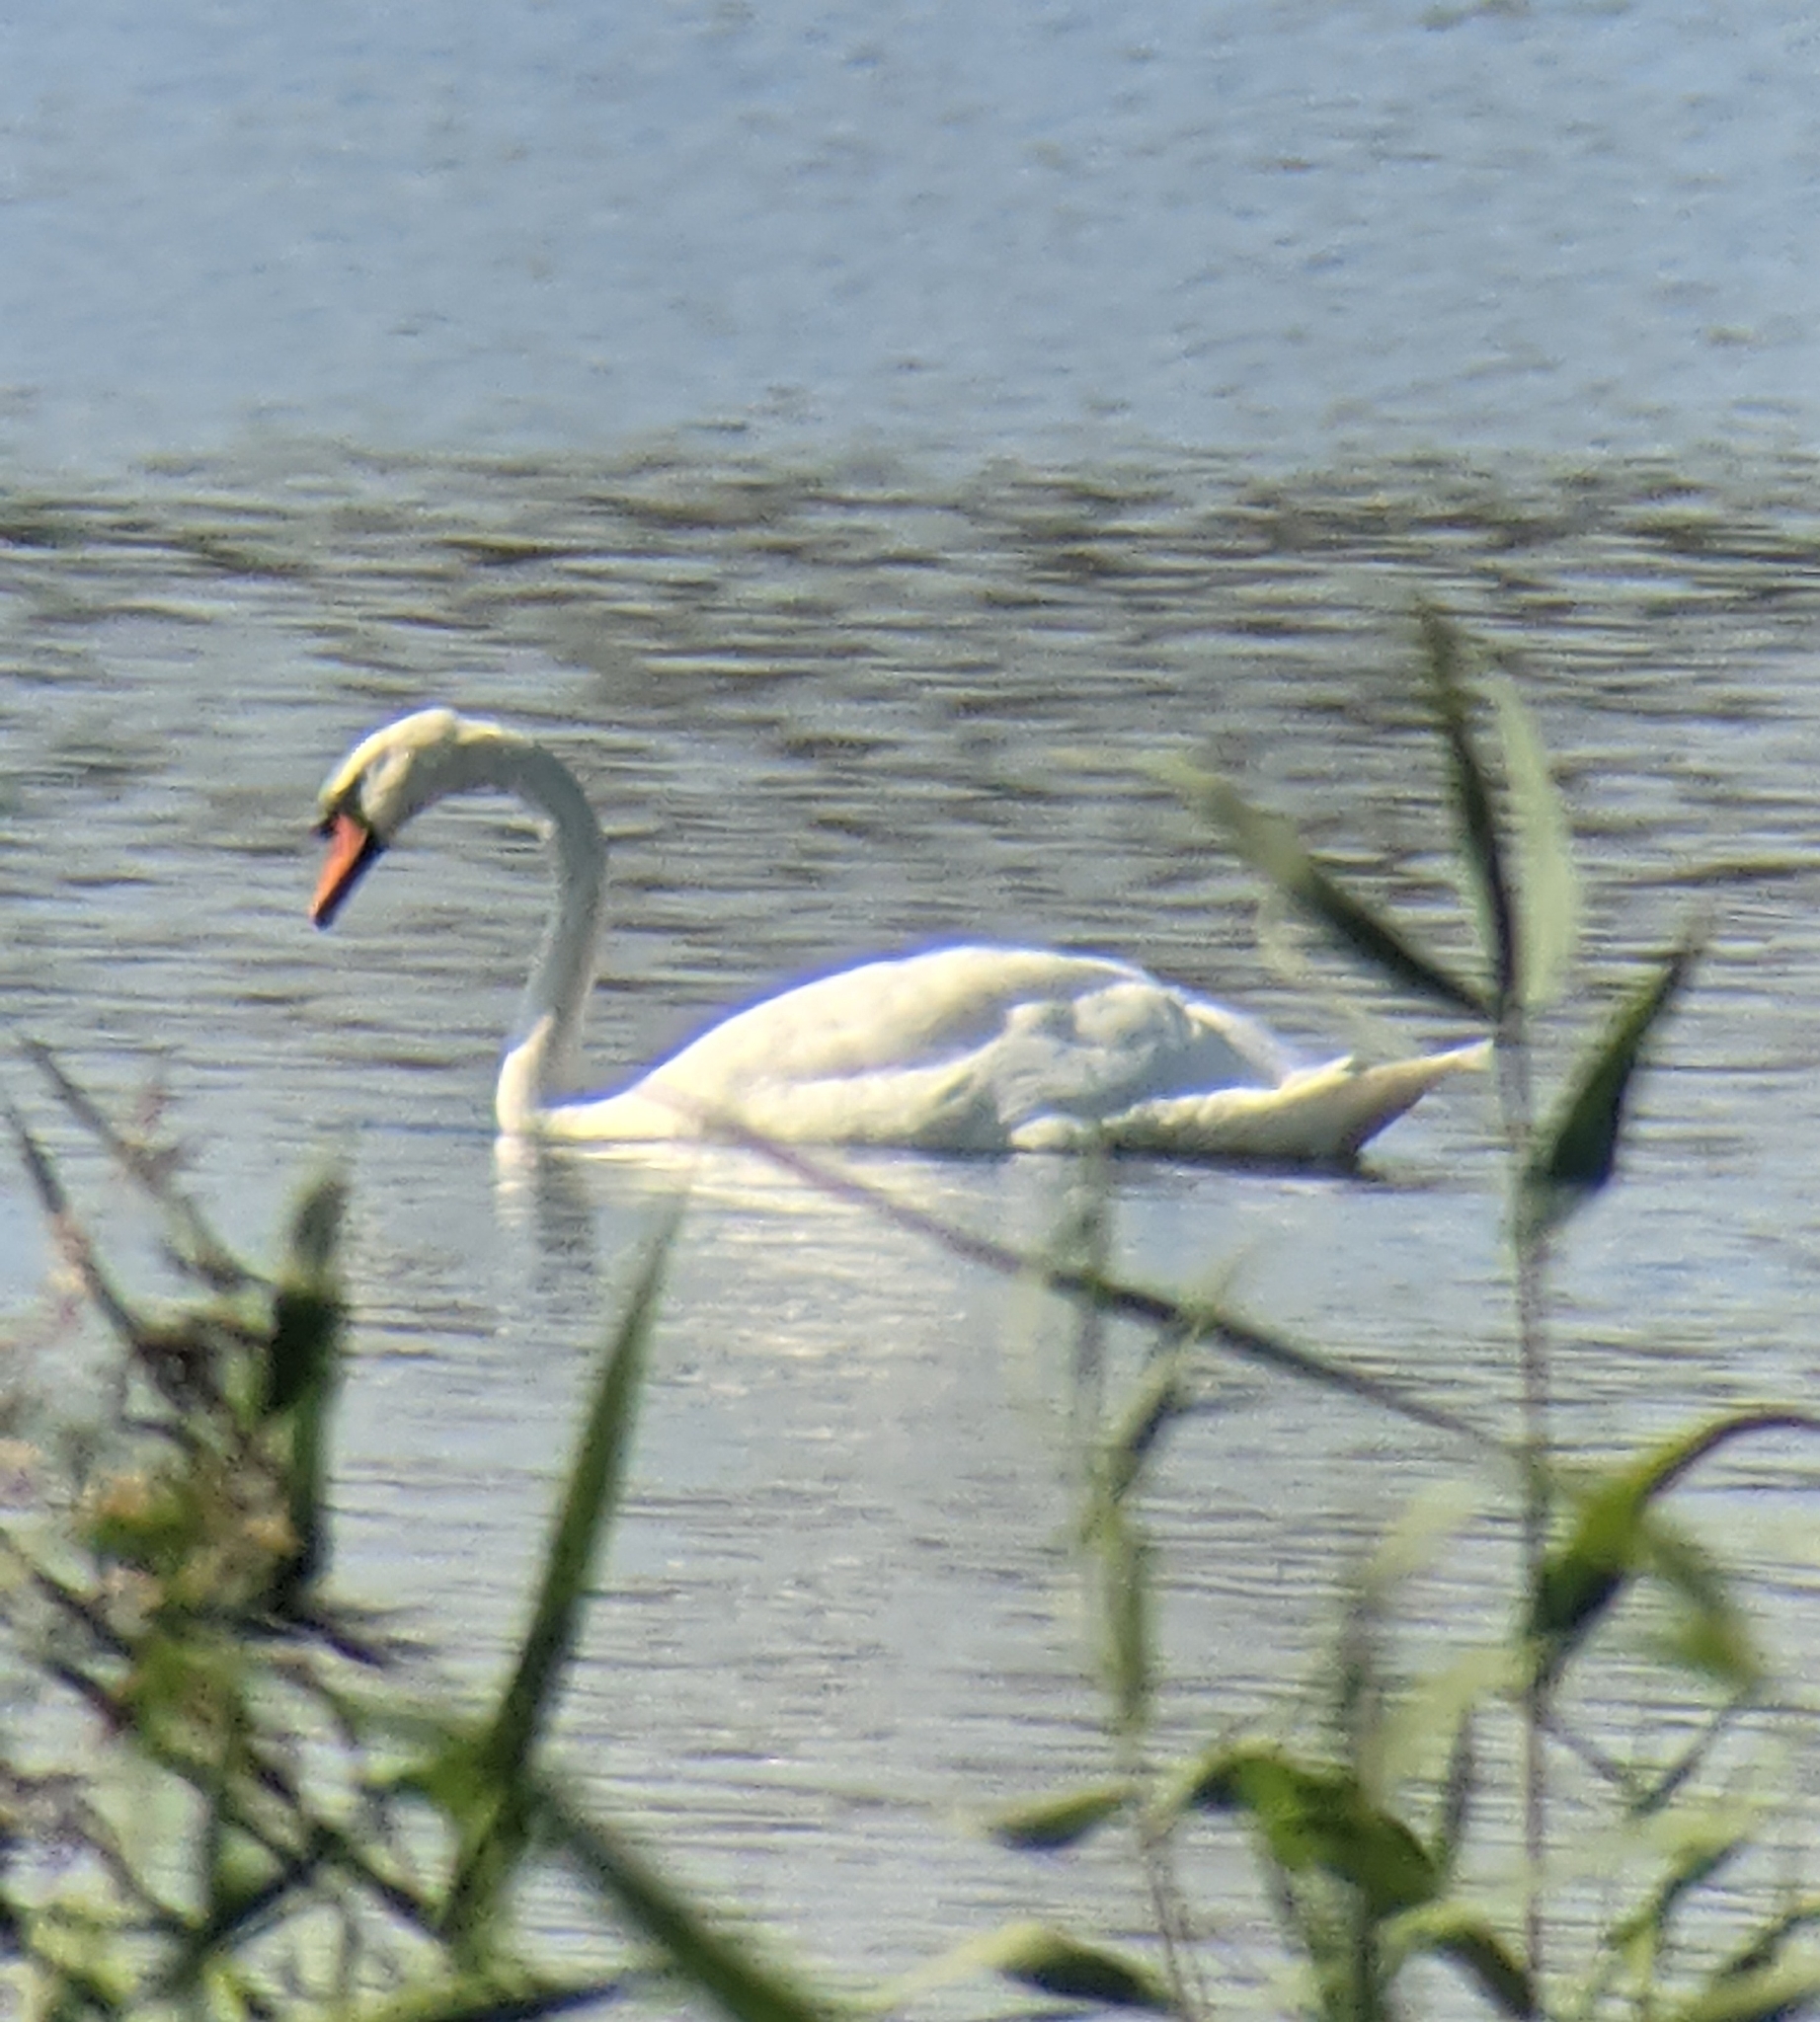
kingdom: Animalia
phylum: Chordata
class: Aves
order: Anseriformes
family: Anatidae
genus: Cygnus
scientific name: Cygnus olor
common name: Mute swan
